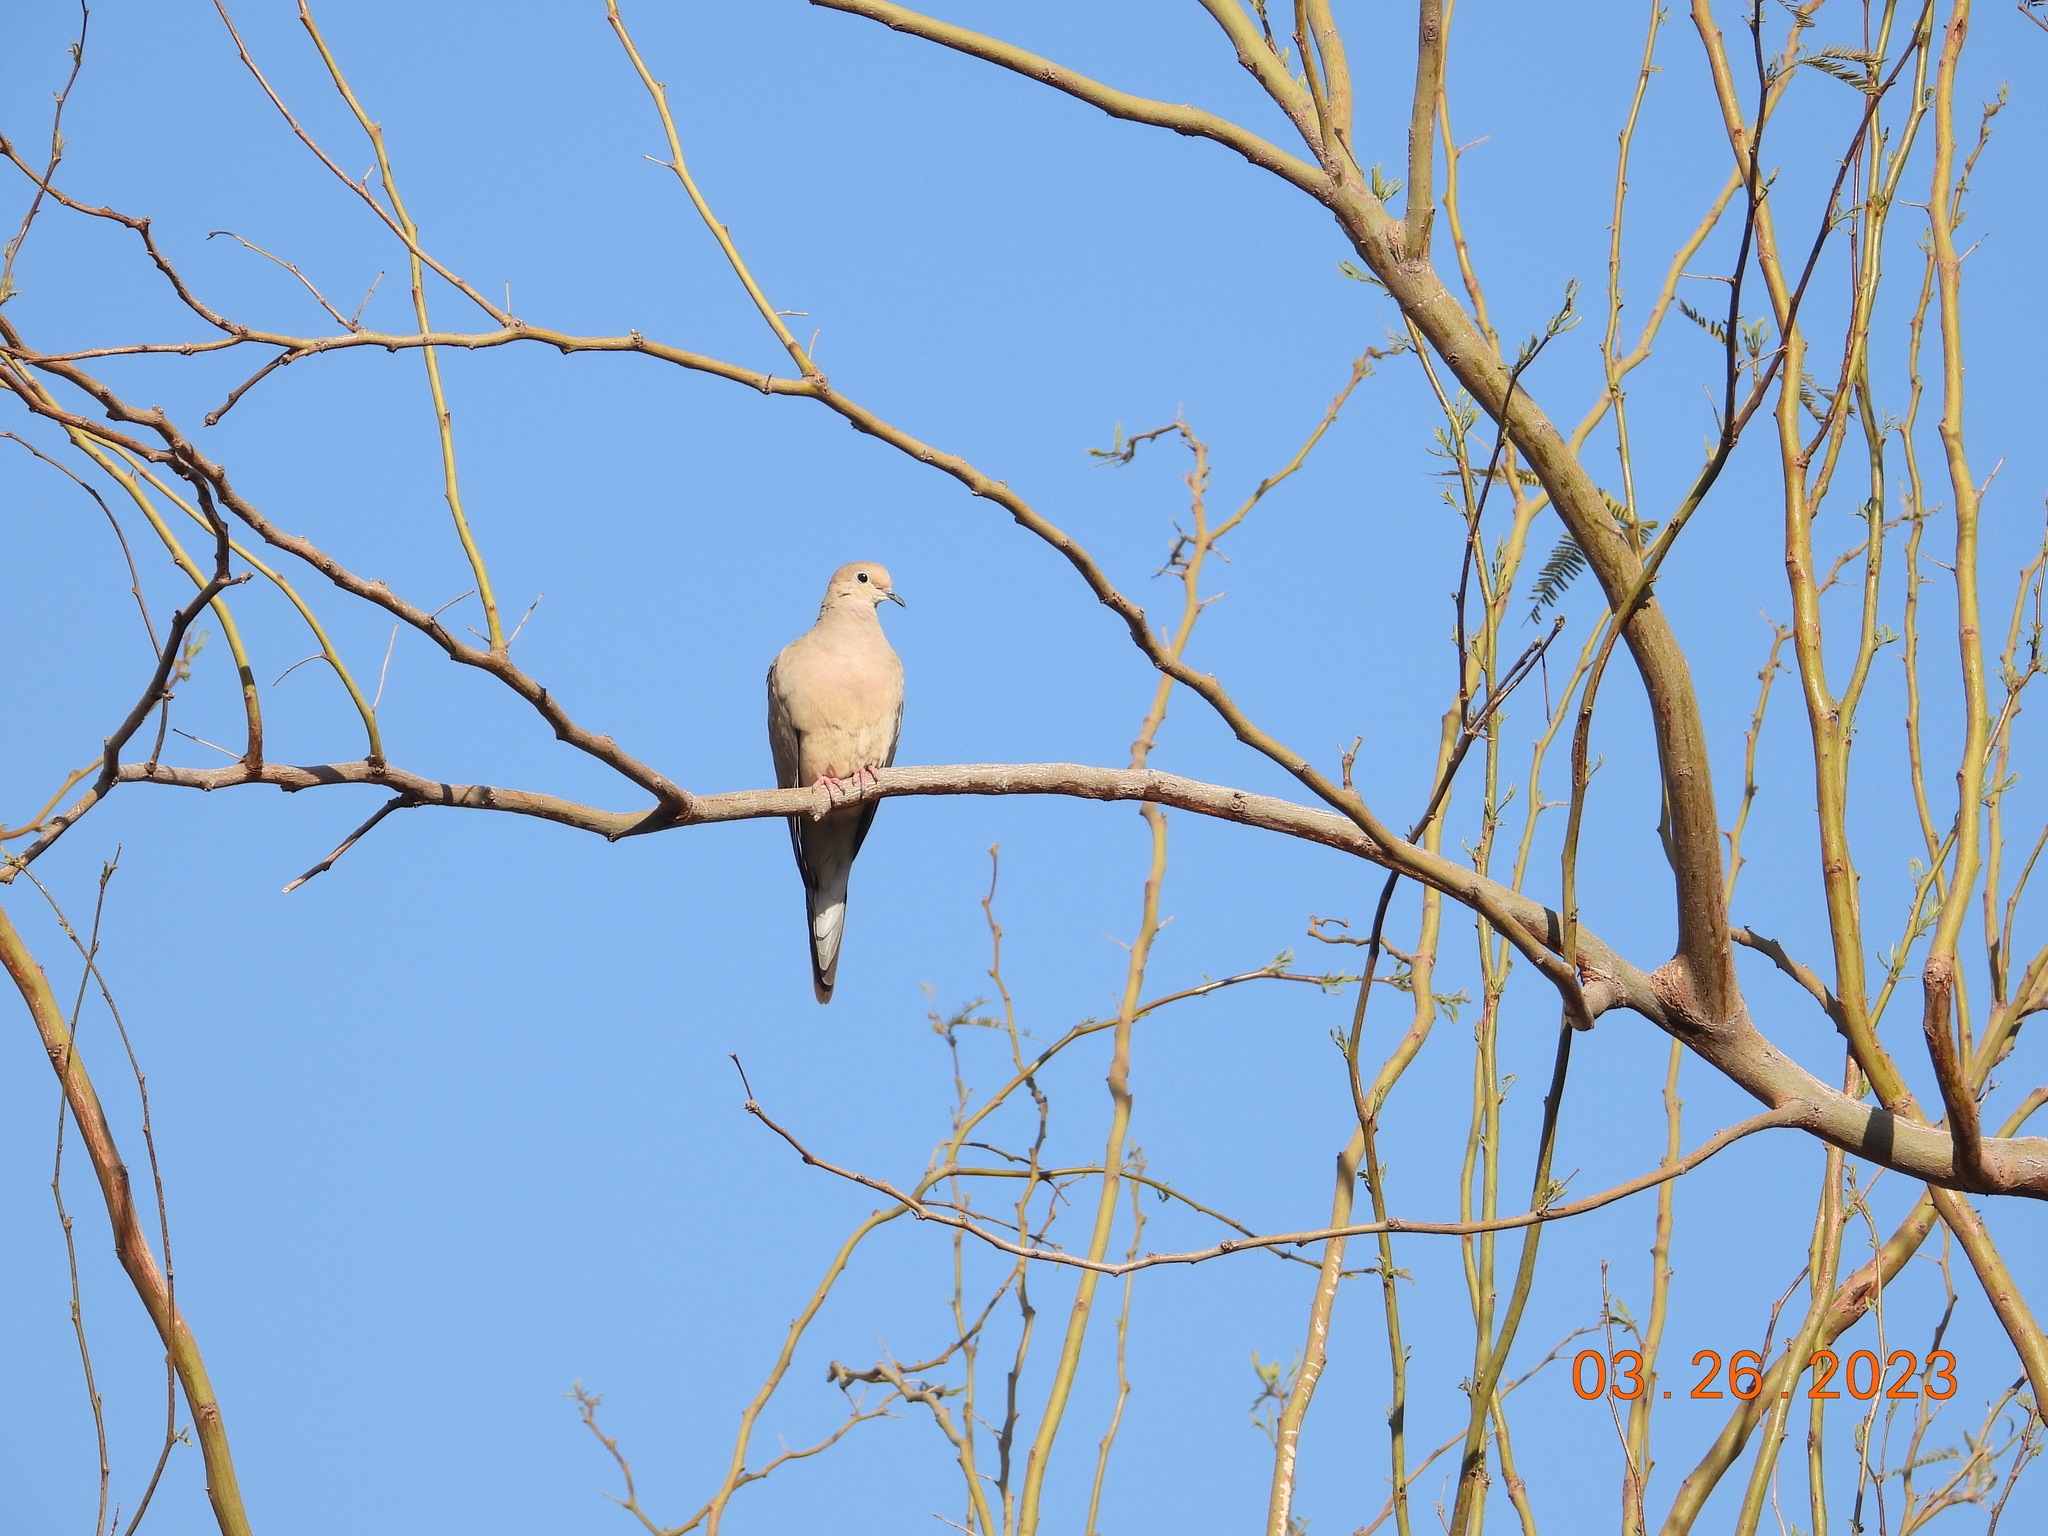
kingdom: Animalia
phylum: Chordata
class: Aves
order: Columbiformes
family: Columbidae
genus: Zenaida
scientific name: Zenaida macroura
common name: Mourning dove
